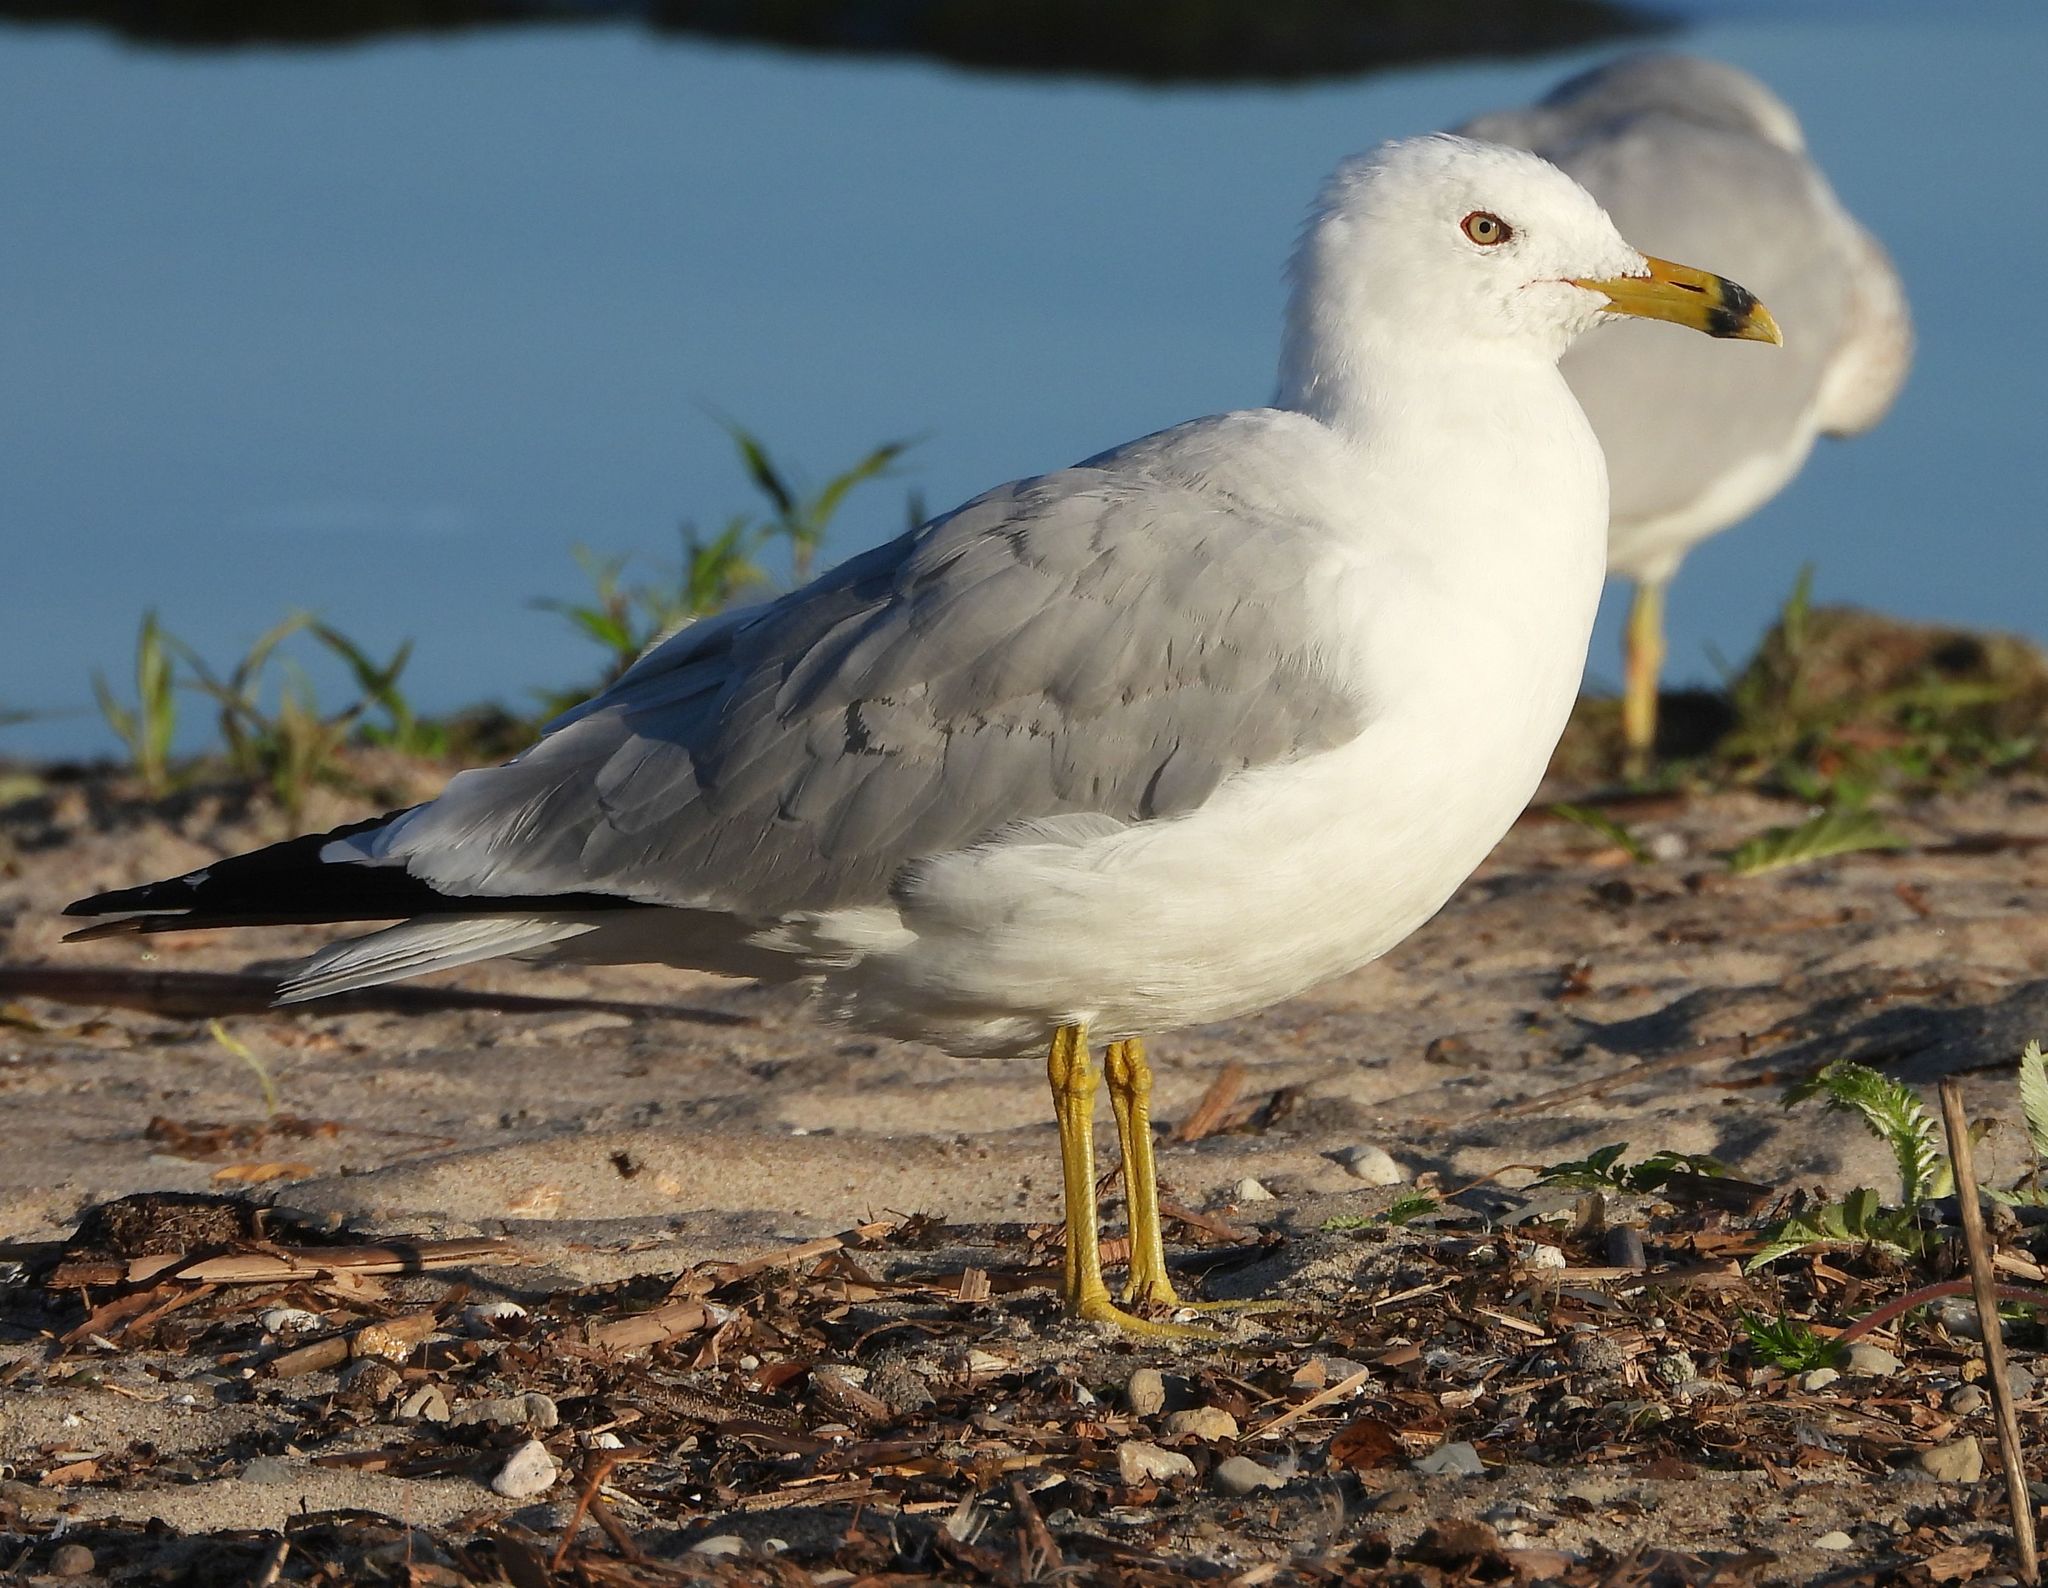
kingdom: Animalia
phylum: Chordata
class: Aves
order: Charadriiformes
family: Laridae
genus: Larus
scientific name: Larus delawarensis
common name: Ring-billed gull
